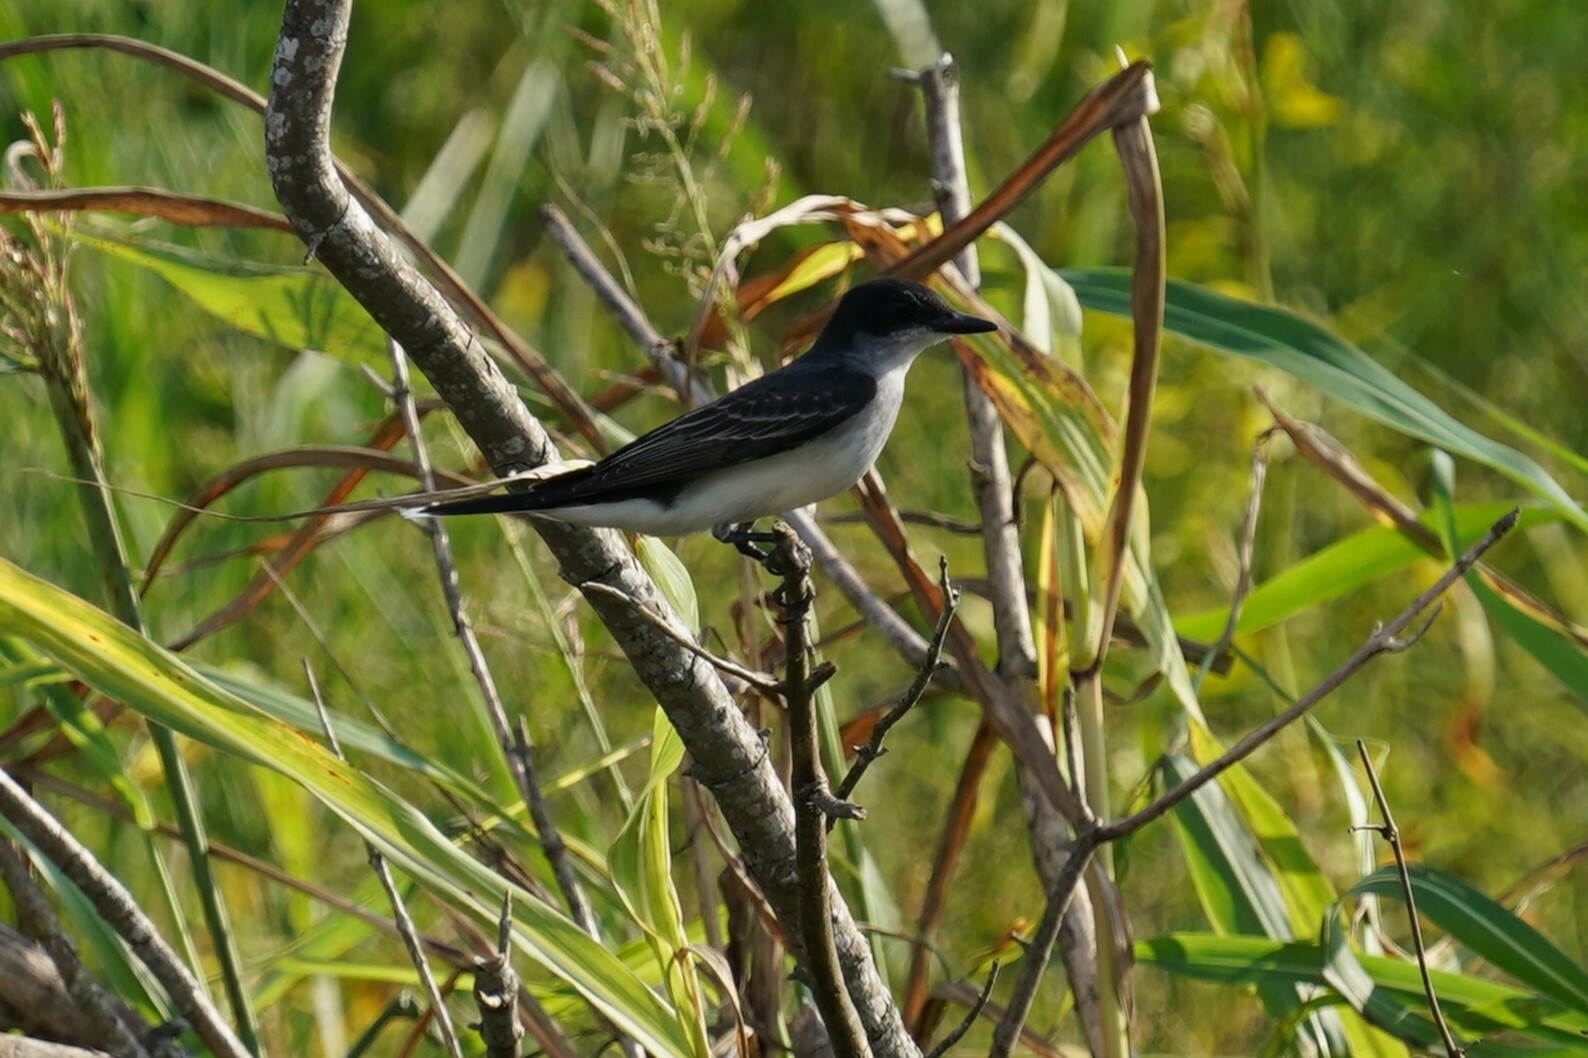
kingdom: Animalia
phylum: Chordata
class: Aves
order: Passeriformes
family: Tyrannidae
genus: Tyrannus
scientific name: Tyrannus tyrannus
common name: Eastern kingbird
